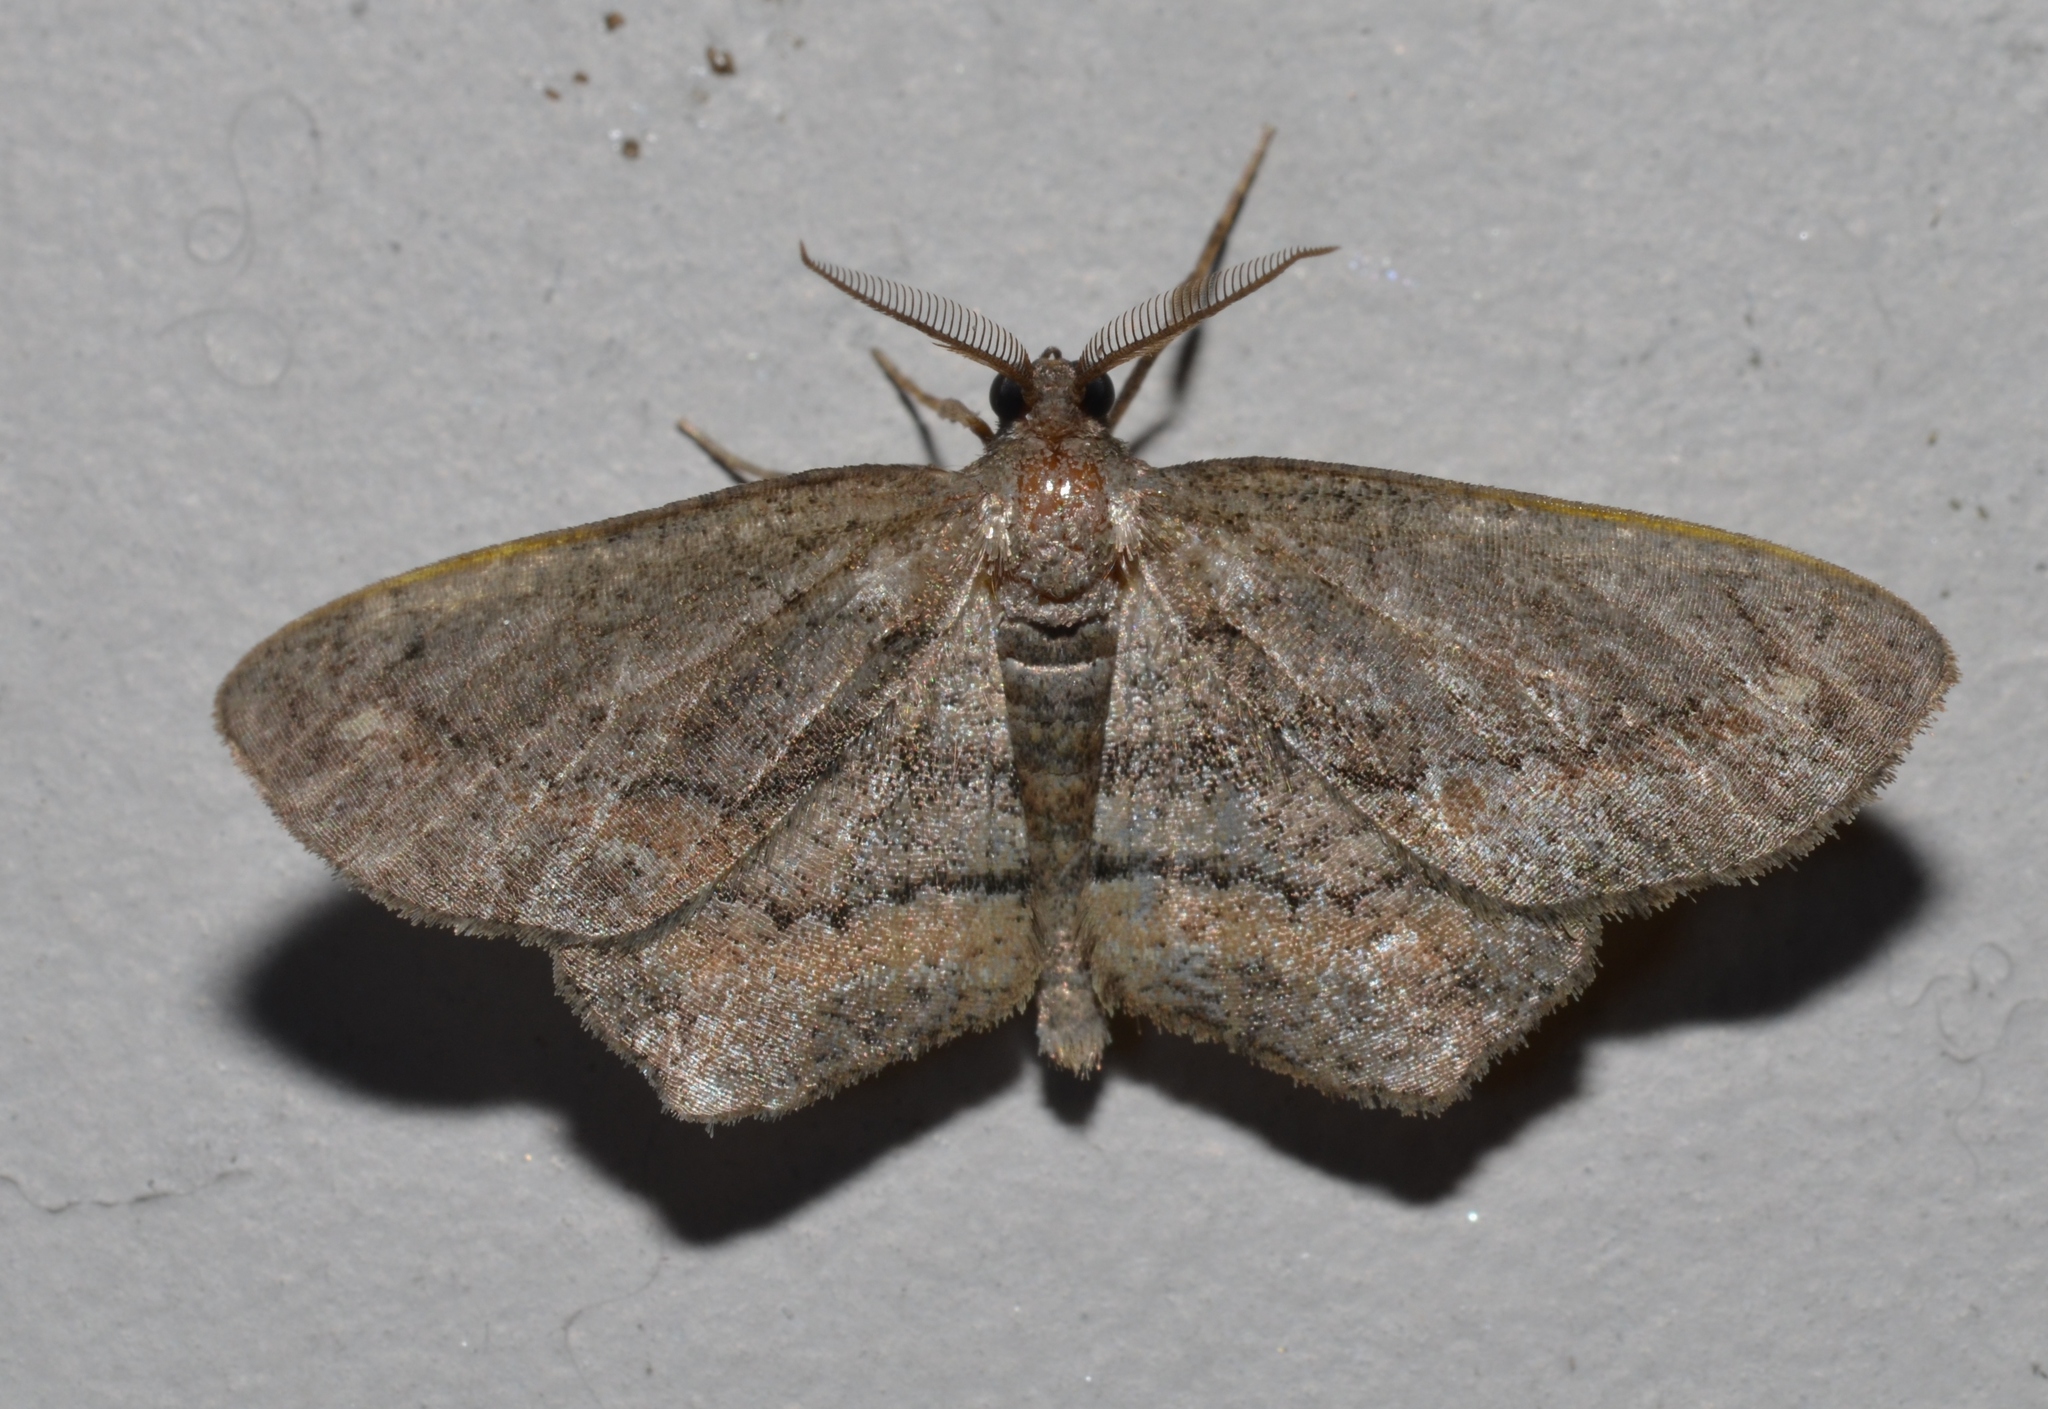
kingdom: Animalia
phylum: Arthropoda
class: Insecta
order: Lepidoptera
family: Geometridae
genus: Hypagyrtis
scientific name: Hypagyrtis brendae
